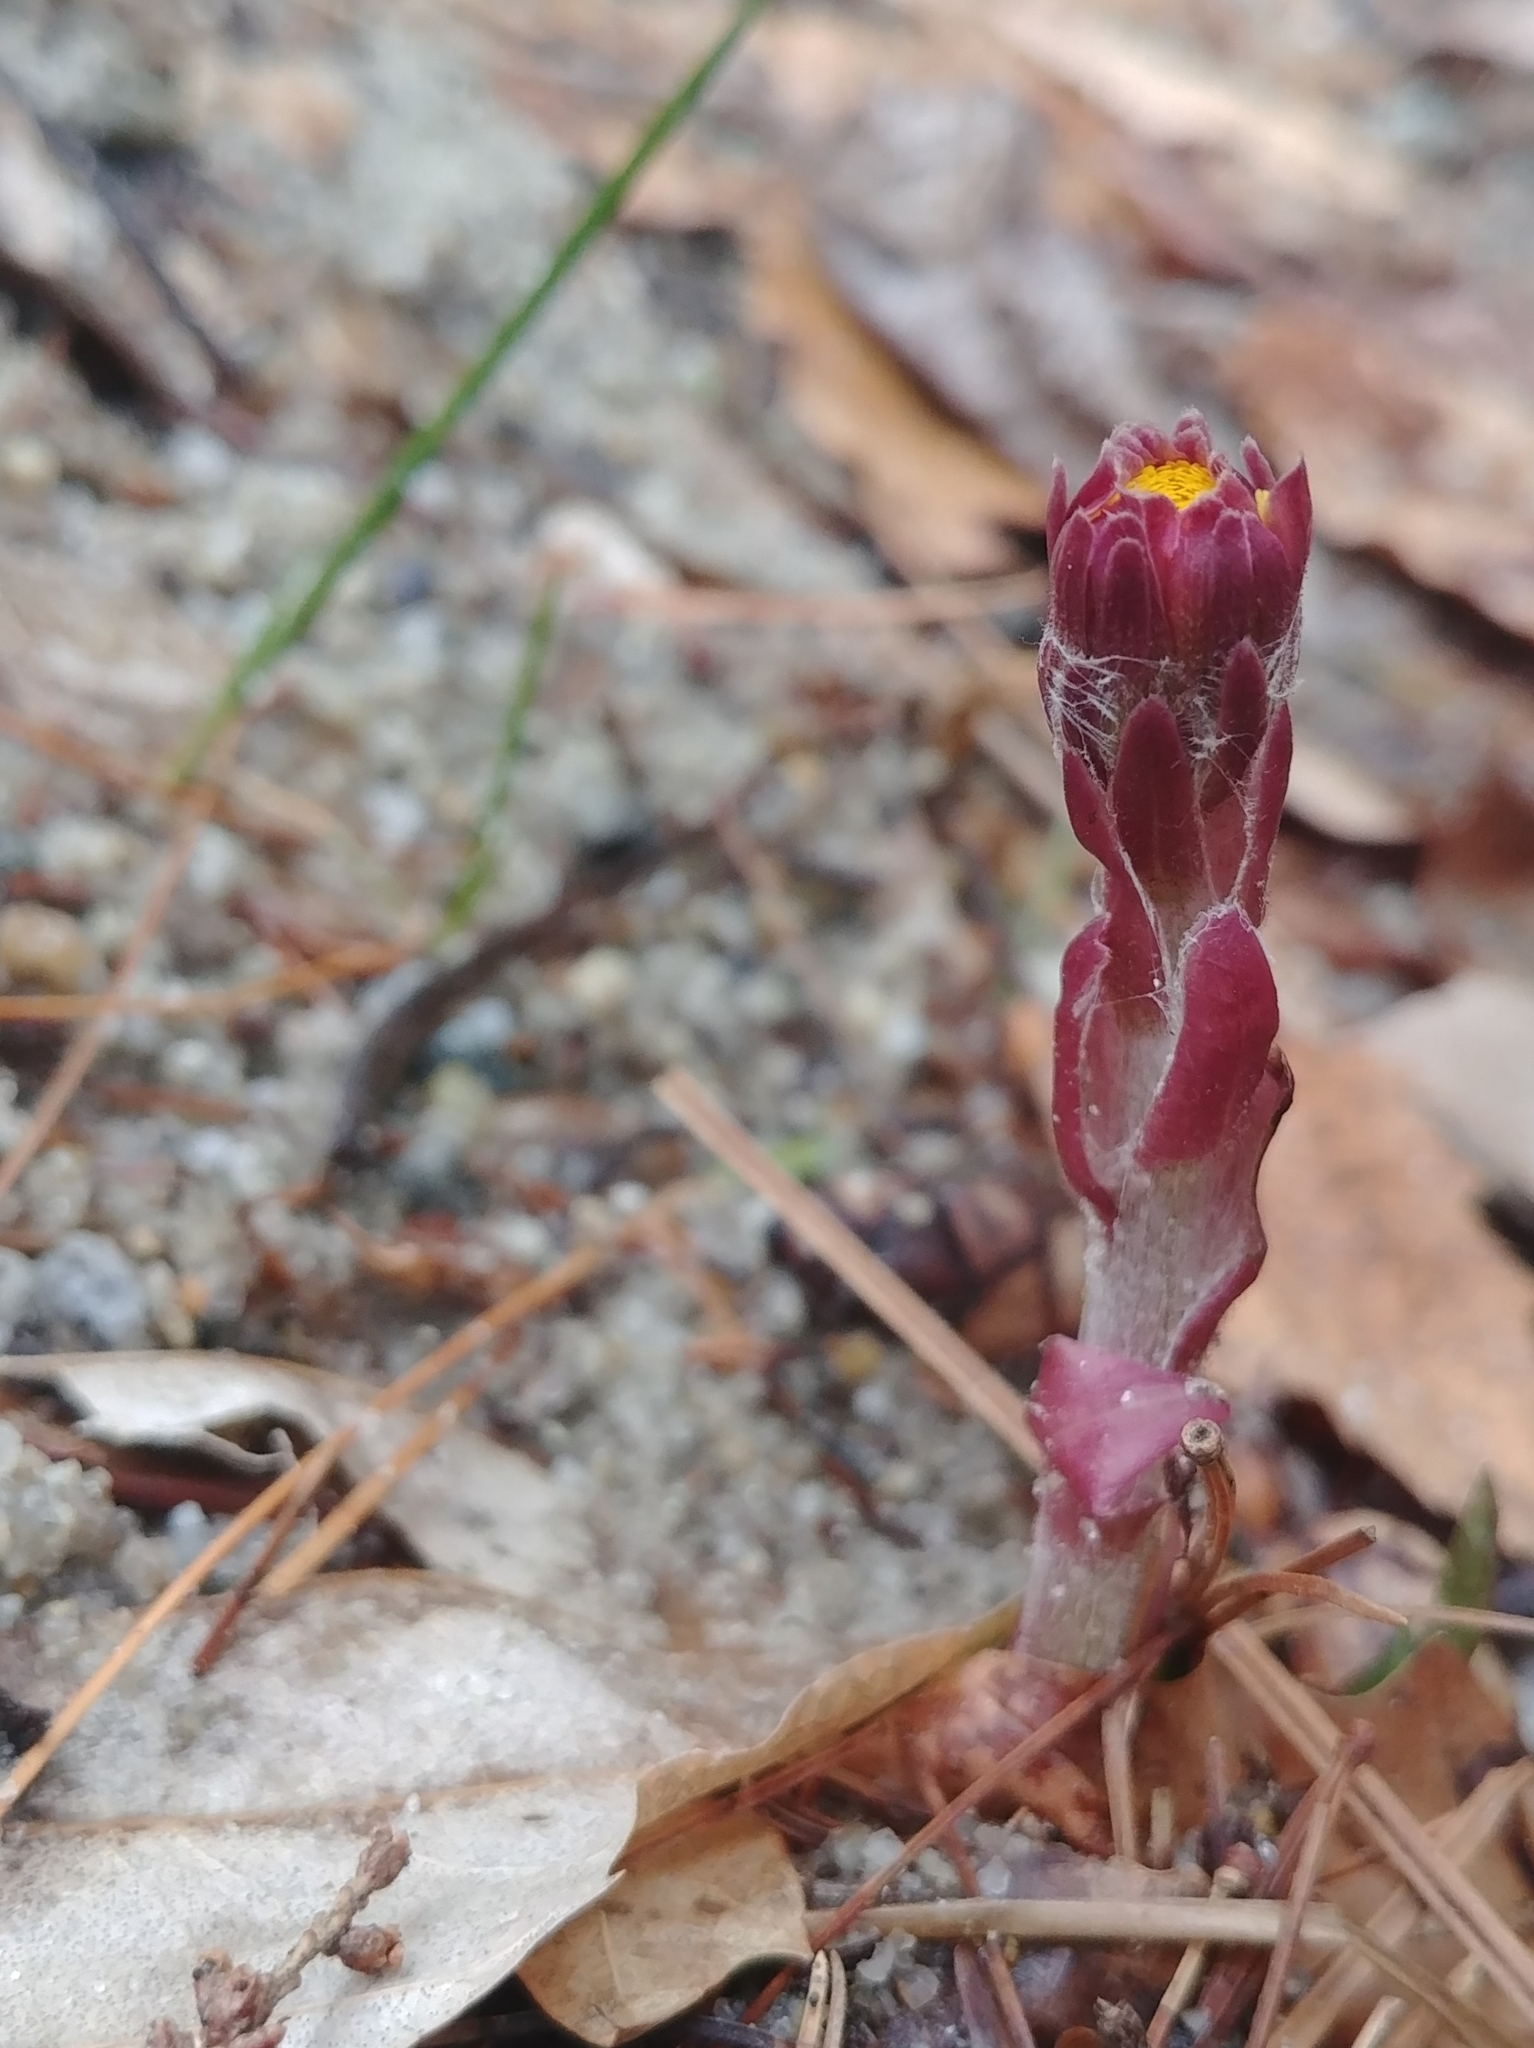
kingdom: Plantae
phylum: Tracheophyta
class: Magnoliopsida
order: Asterales
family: Asteraceae
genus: Tussilago
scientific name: Tussilago farfara
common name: Coltsfoot
